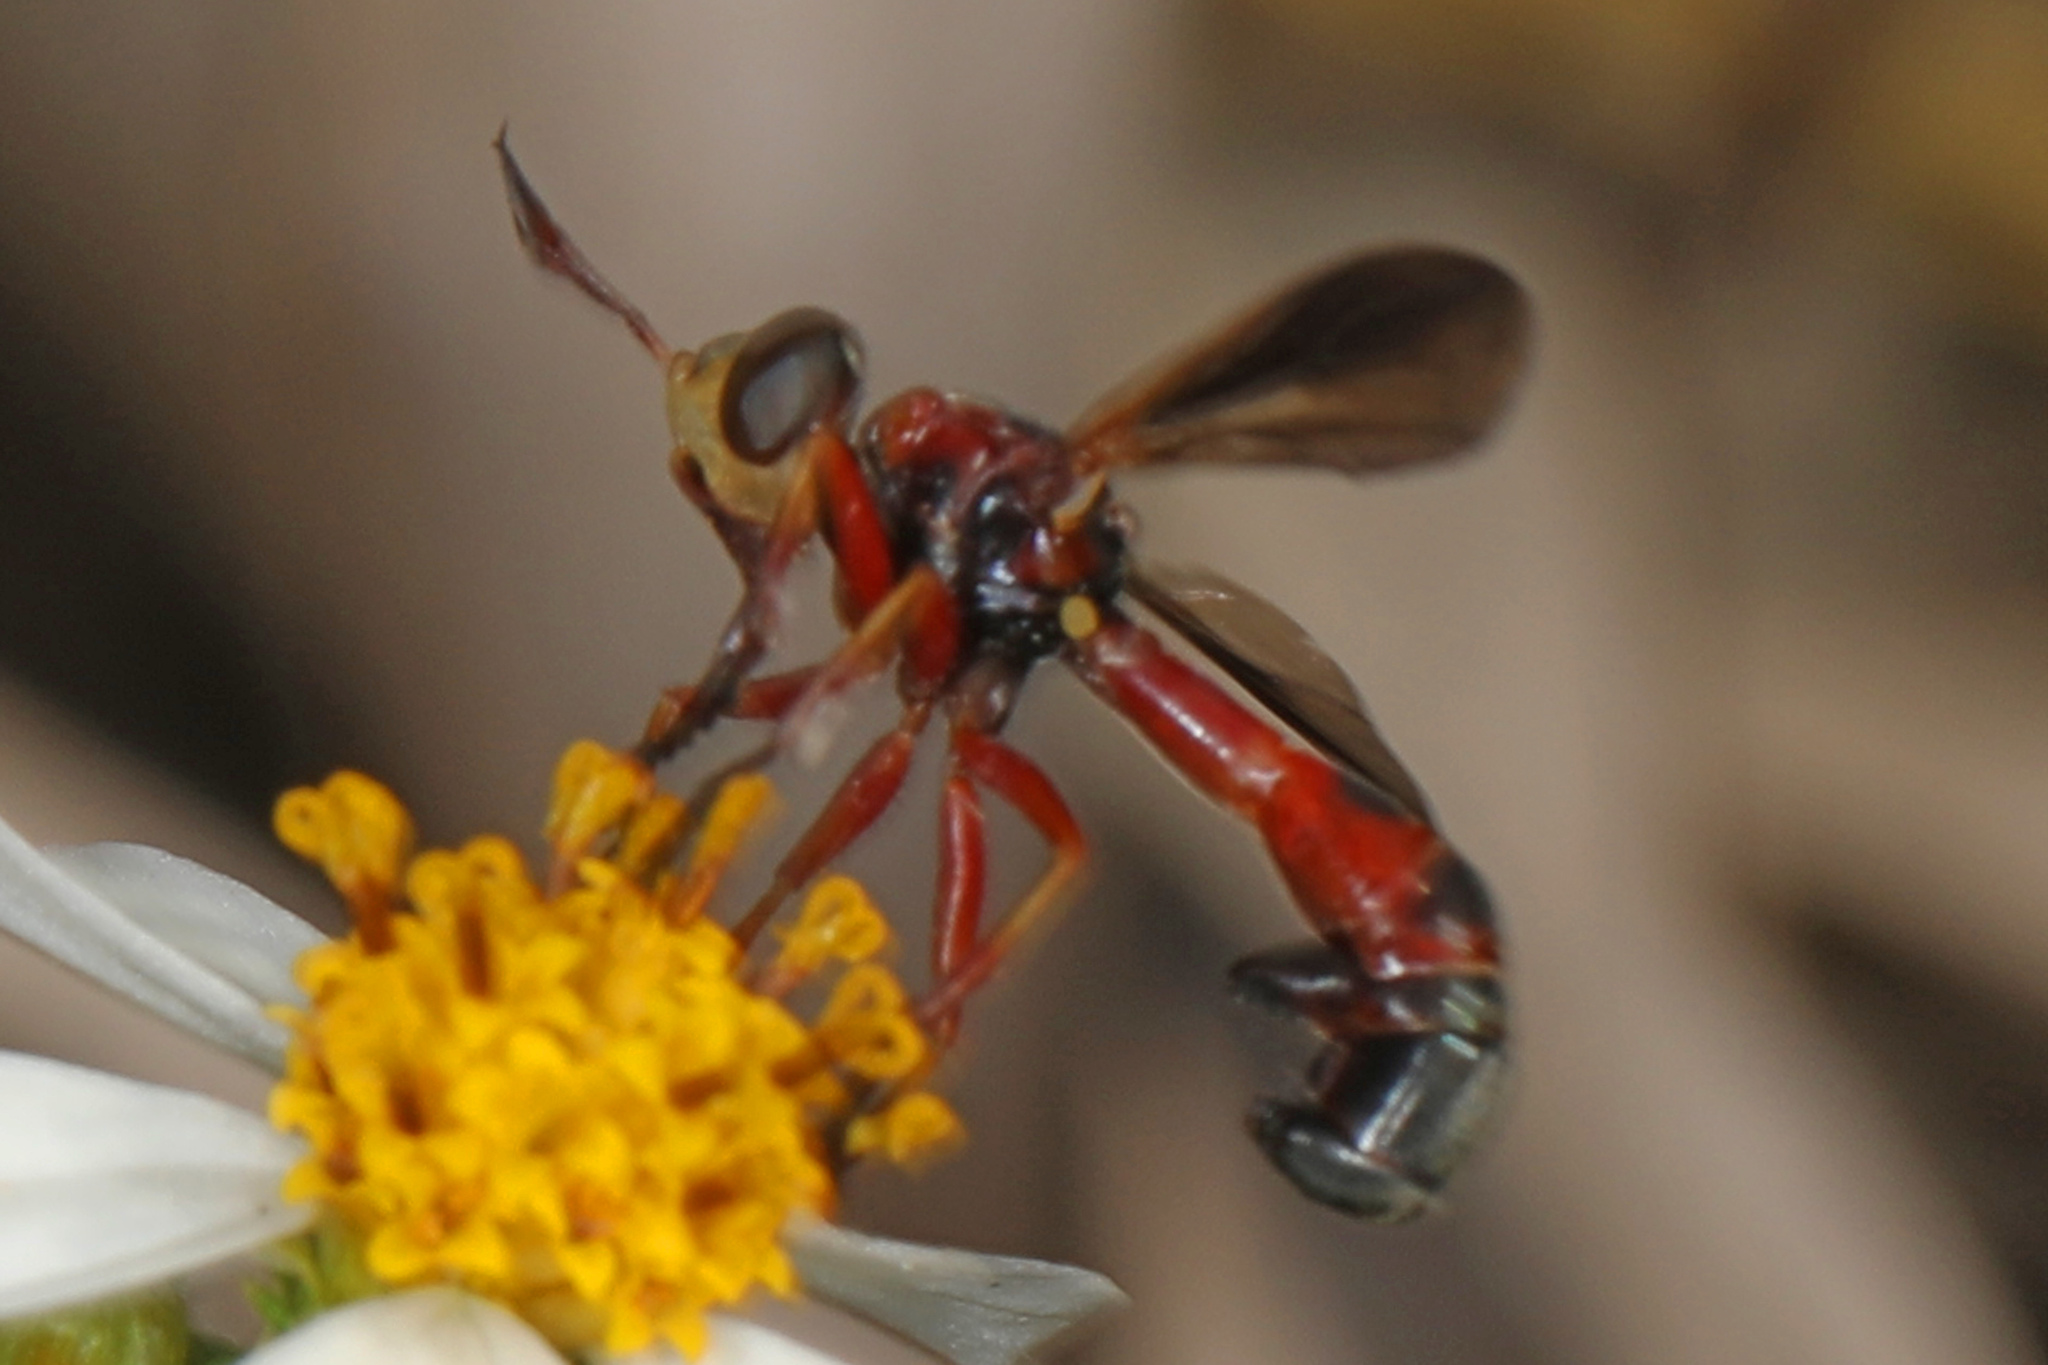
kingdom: Animalia
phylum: Arthropoda
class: Insecta
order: Diptera
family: Conopidae
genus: Physoconops
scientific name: Physoconops floridanus
